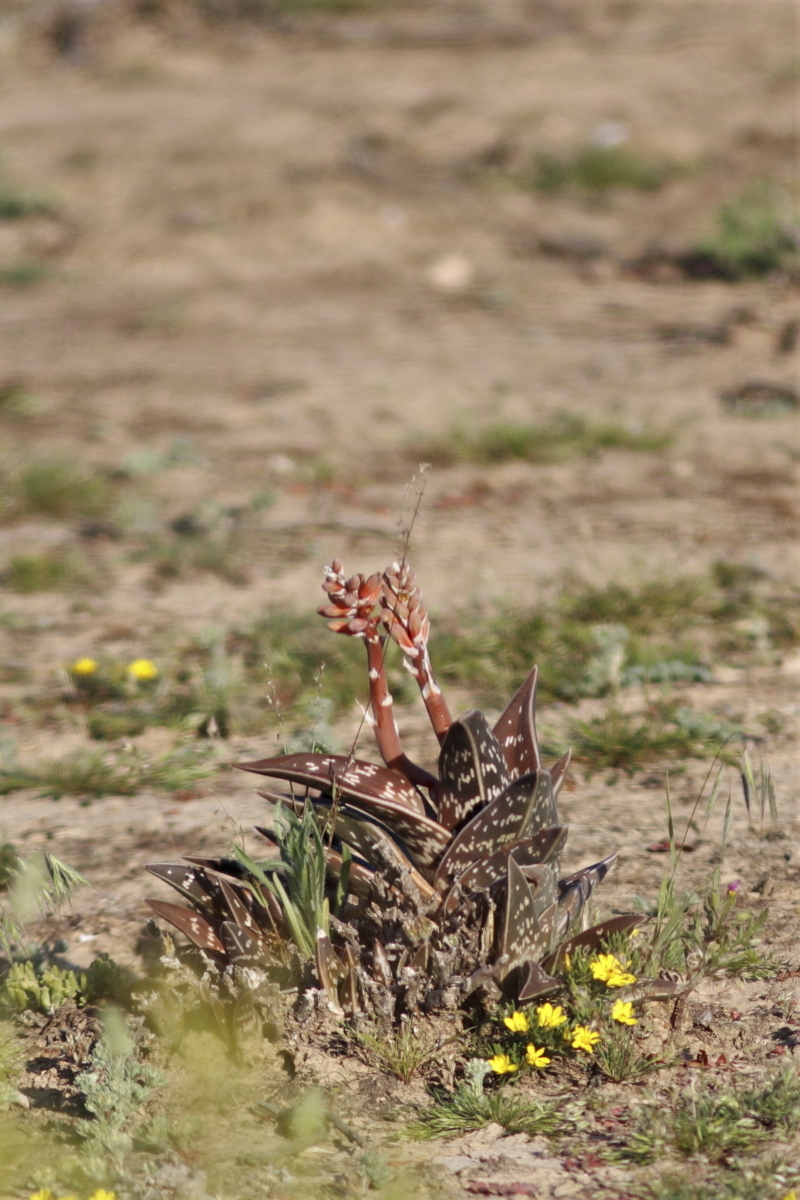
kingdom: Plantae
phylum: Tracheophyta
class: Liliopsida
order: Asparagales
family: Asphodelaceae
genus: Gonialoe
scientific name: Gonialoe variegata
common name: Aloe variegata
